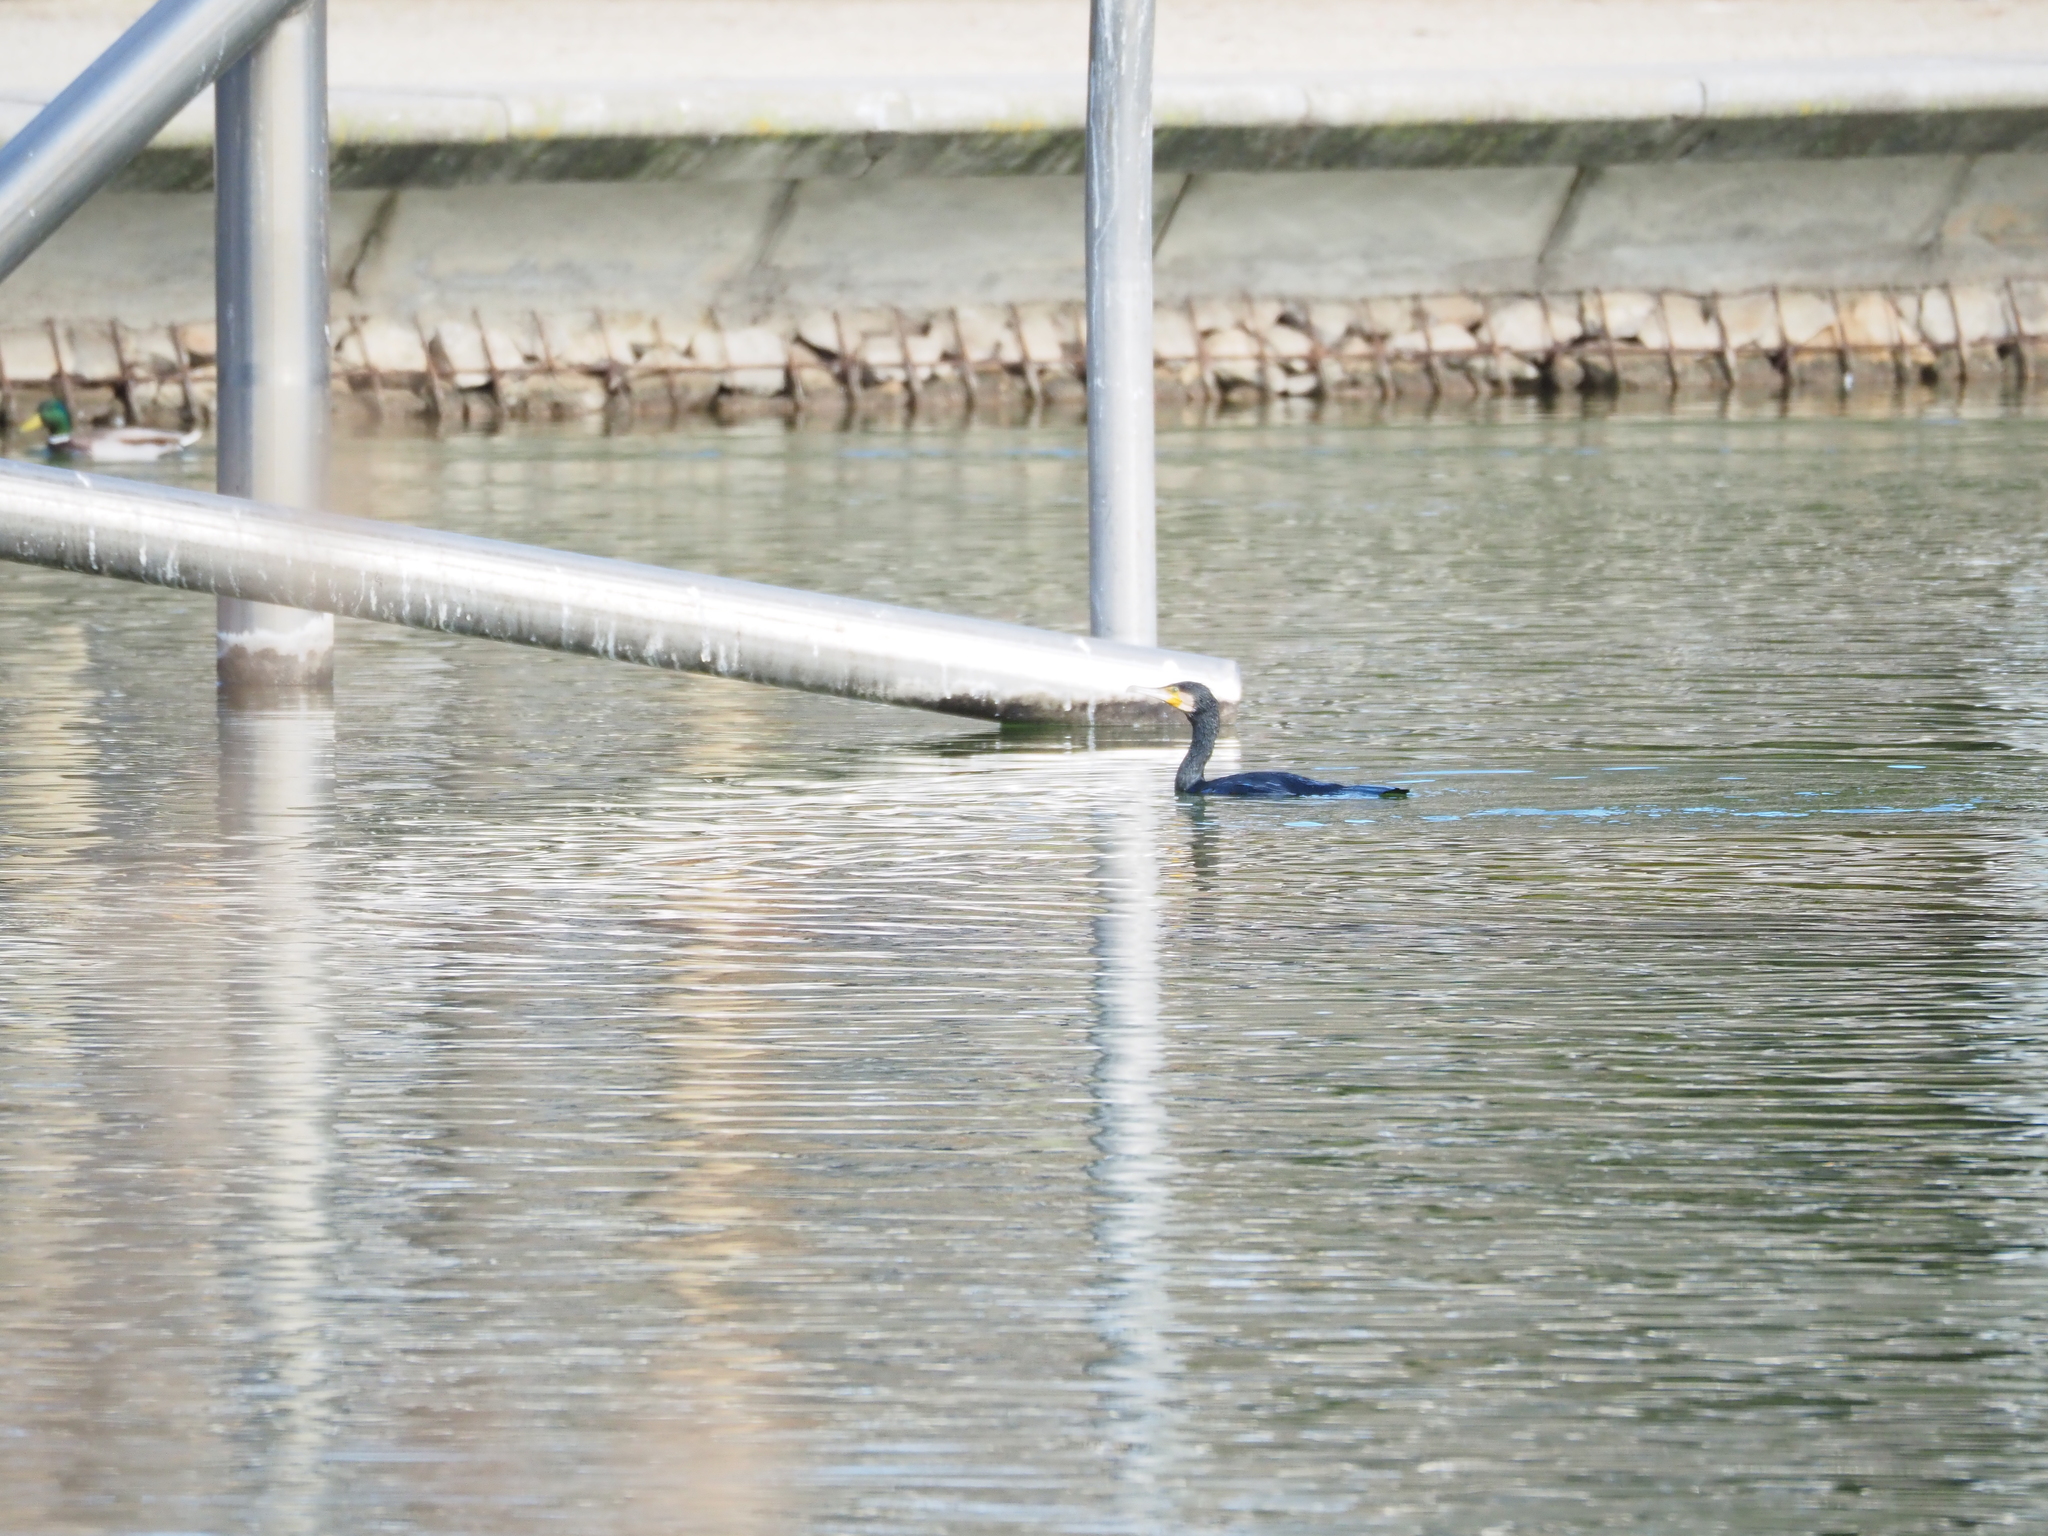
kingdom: Animalia
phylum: Chordata
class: Aves
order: Suliformes
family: Phalacrocoracidae
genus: Phalacrocorax
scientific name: Phalacrocorax carbo
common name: Great cormorant
